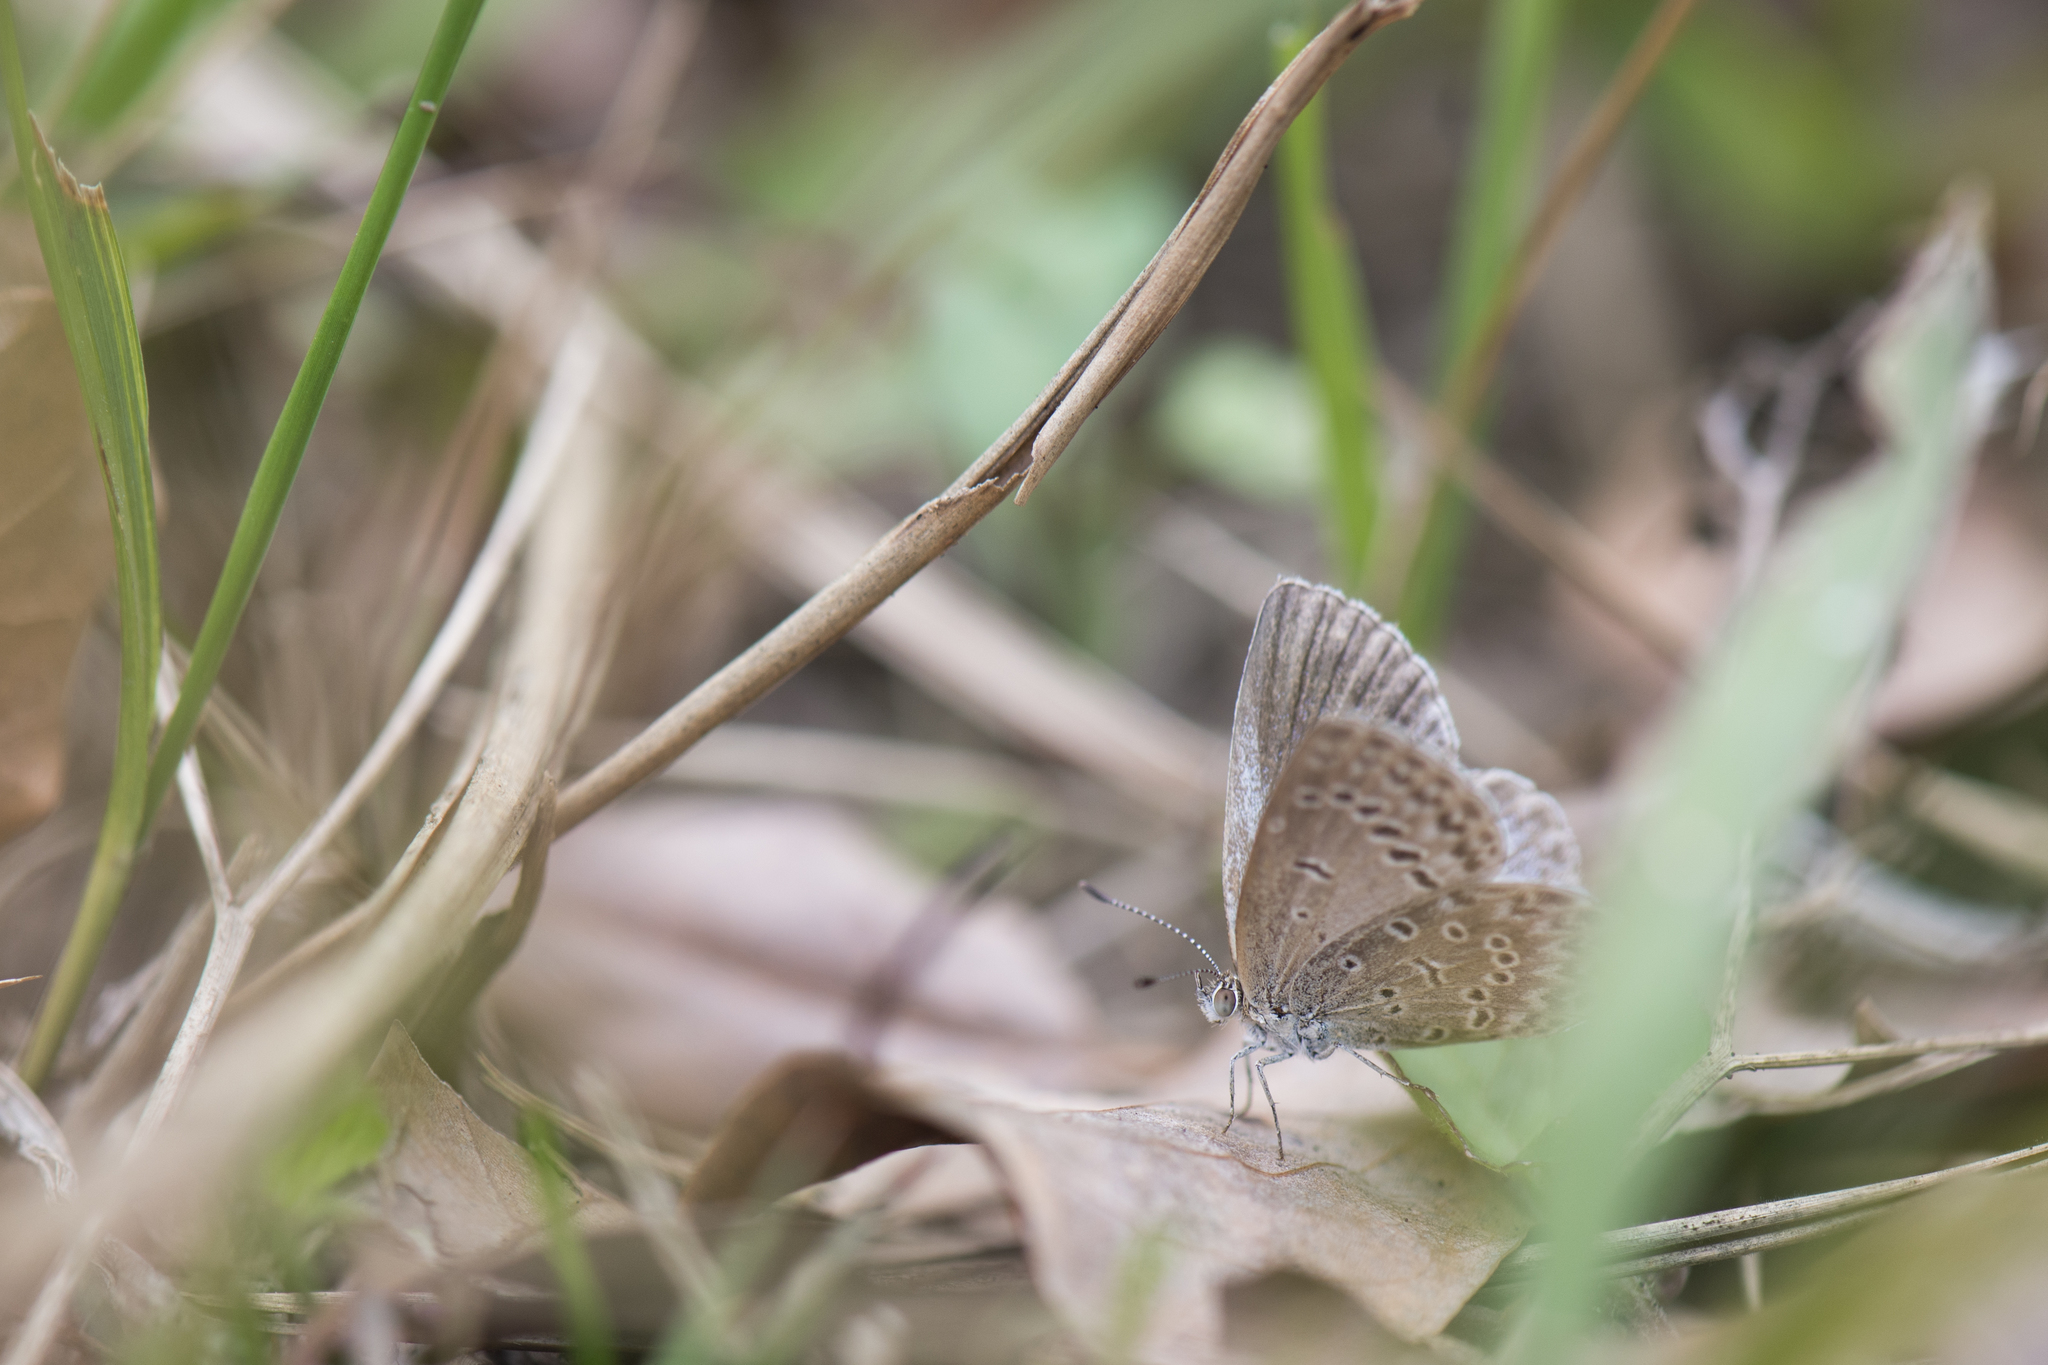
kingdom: Animalia
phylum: Arthropoda
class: Insecta
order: Lepidoptera
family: Lycaenidae
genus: Pseudozizeeria
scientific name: Pseudozizeeria maha
